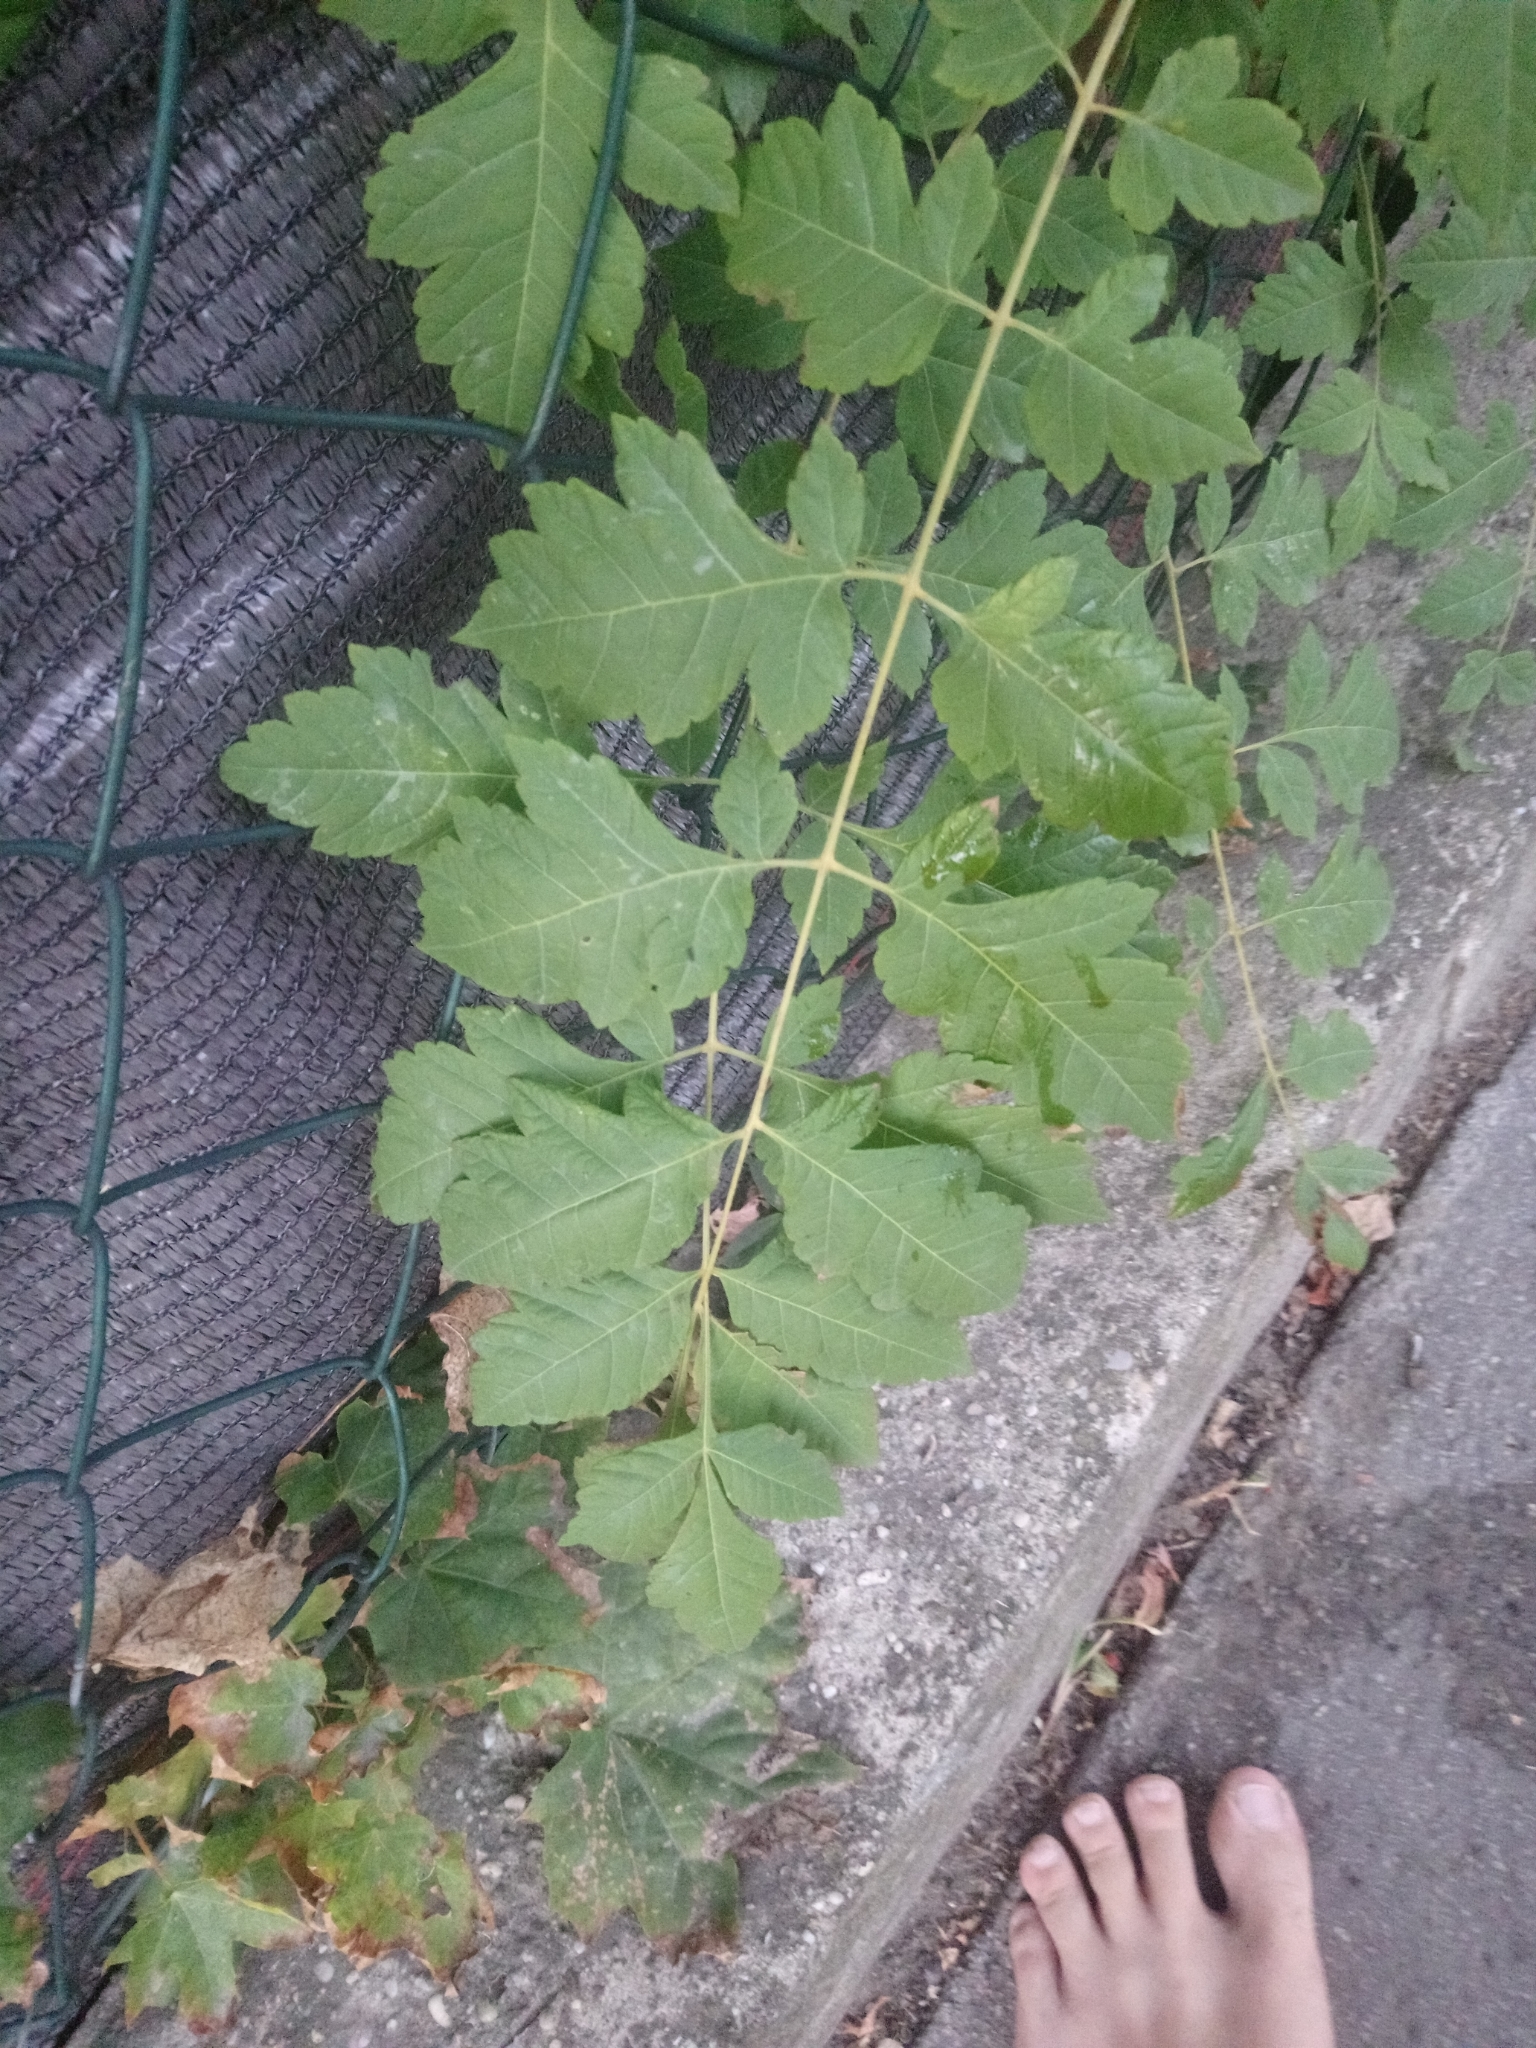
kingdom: Plantae
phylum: Tracheophyta
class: Magnoliopsida
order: Sapindales
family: Sapindaceae
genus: Koelreuteria
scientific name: Koelreuteria paniculata
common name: Pride-of-india
